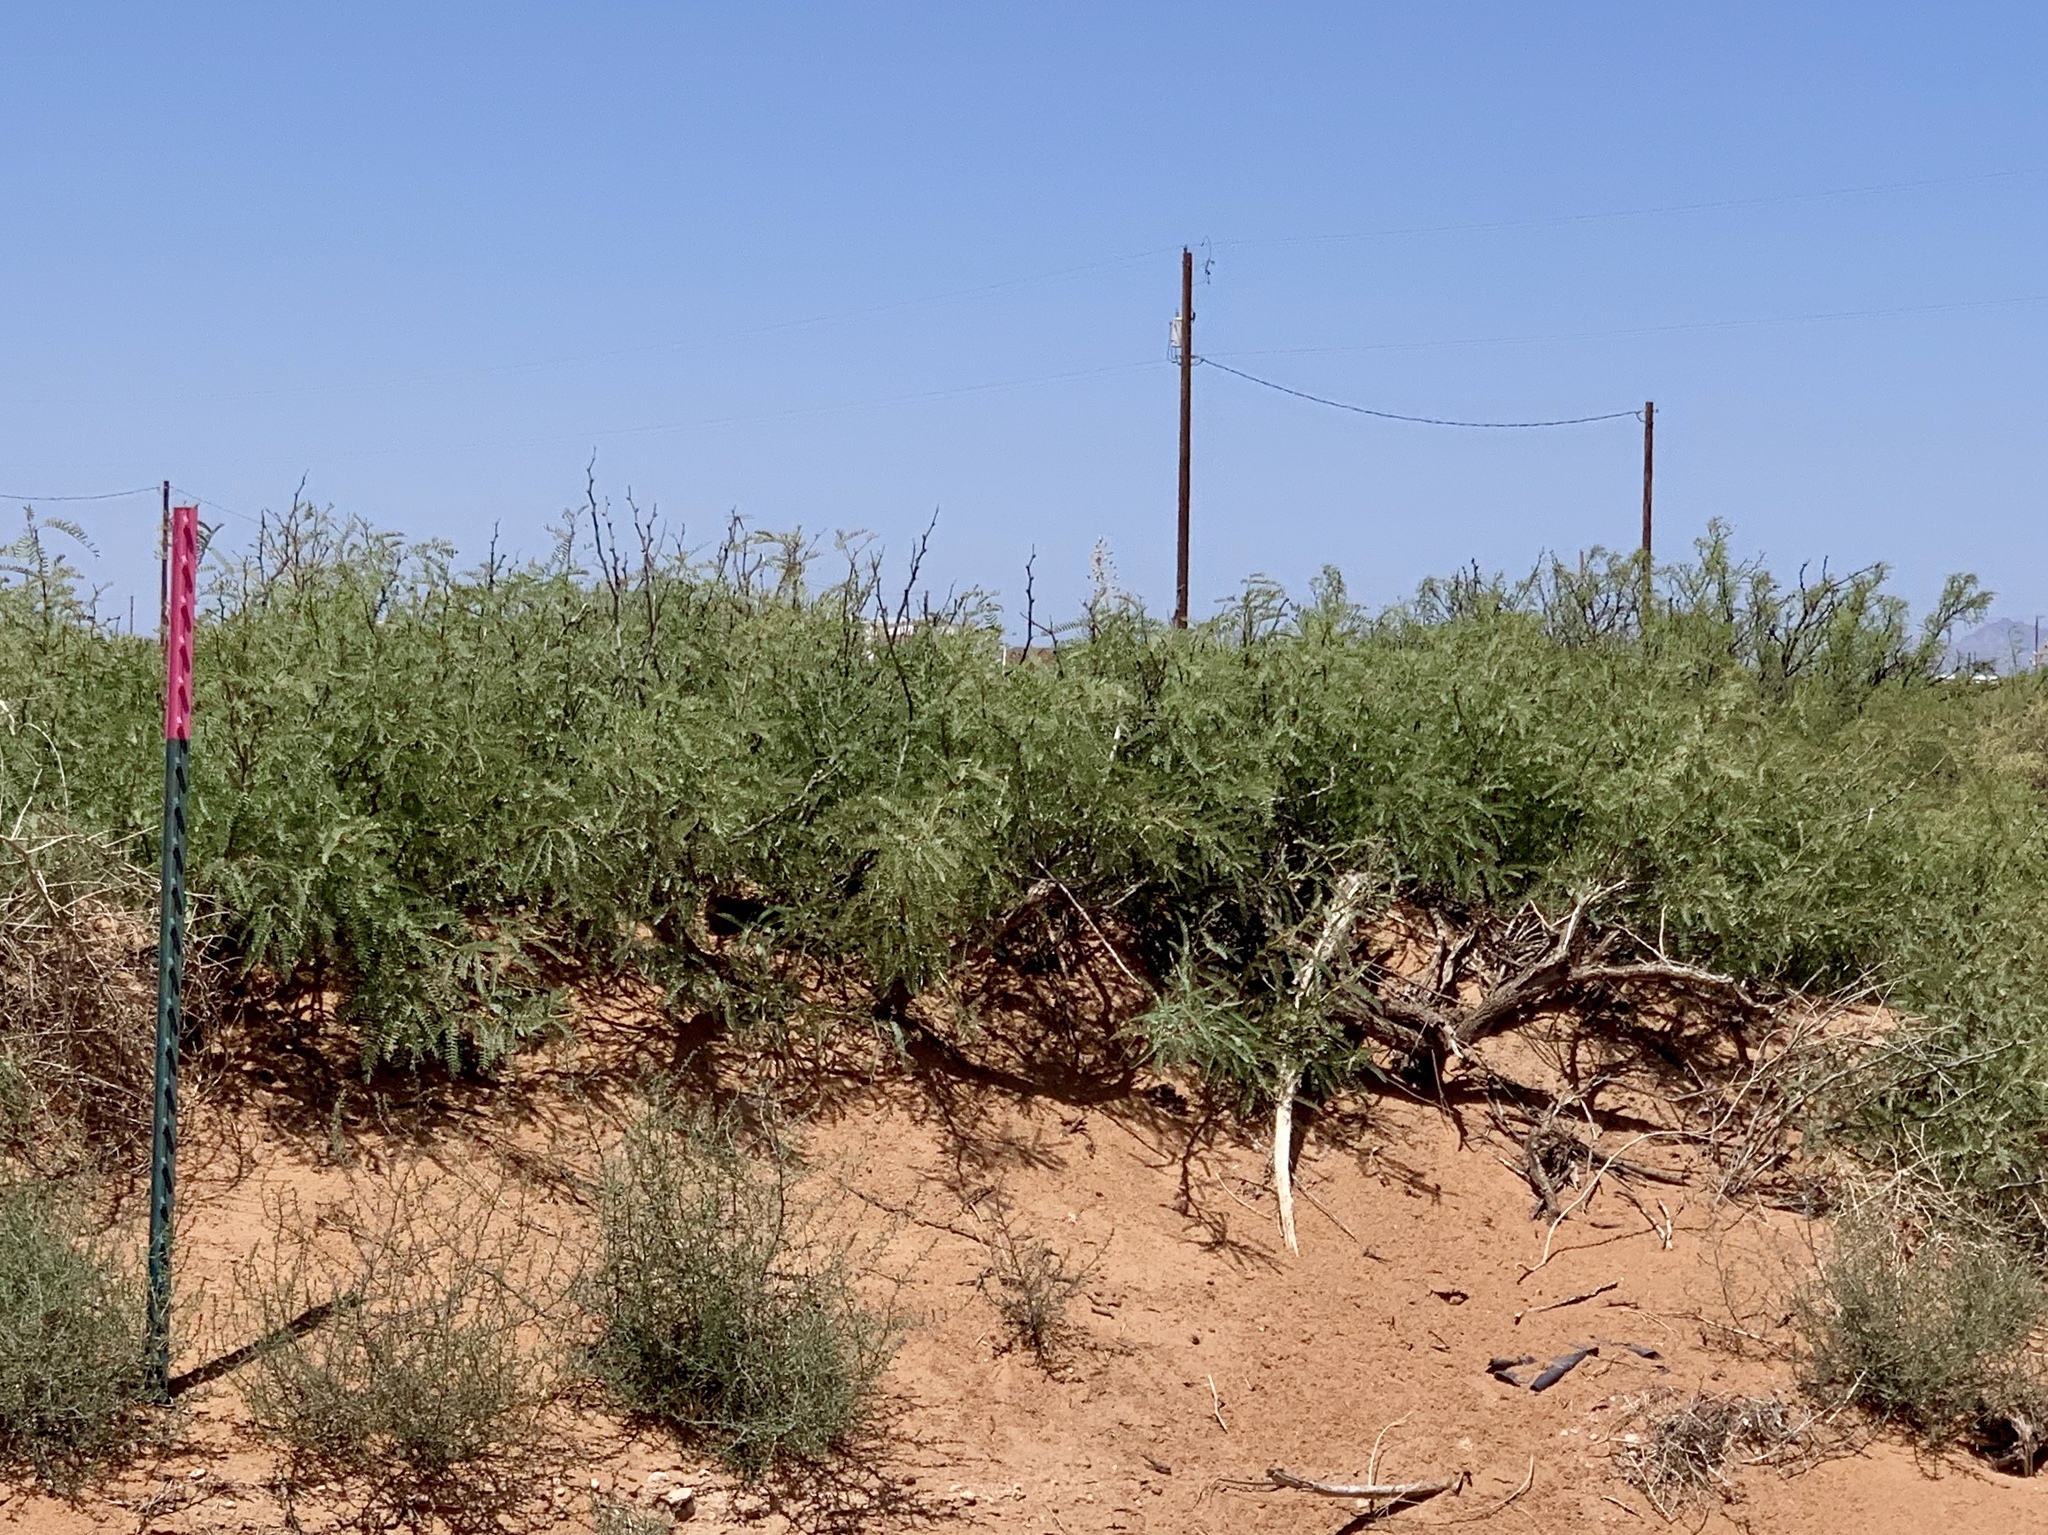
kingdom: Plantae
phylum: Tracheophyta
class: Magnoliopsida
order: Fabales
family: Fabaceae
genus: Prosopis
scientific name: Prosopis glandulosa
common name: Honey mesquite
